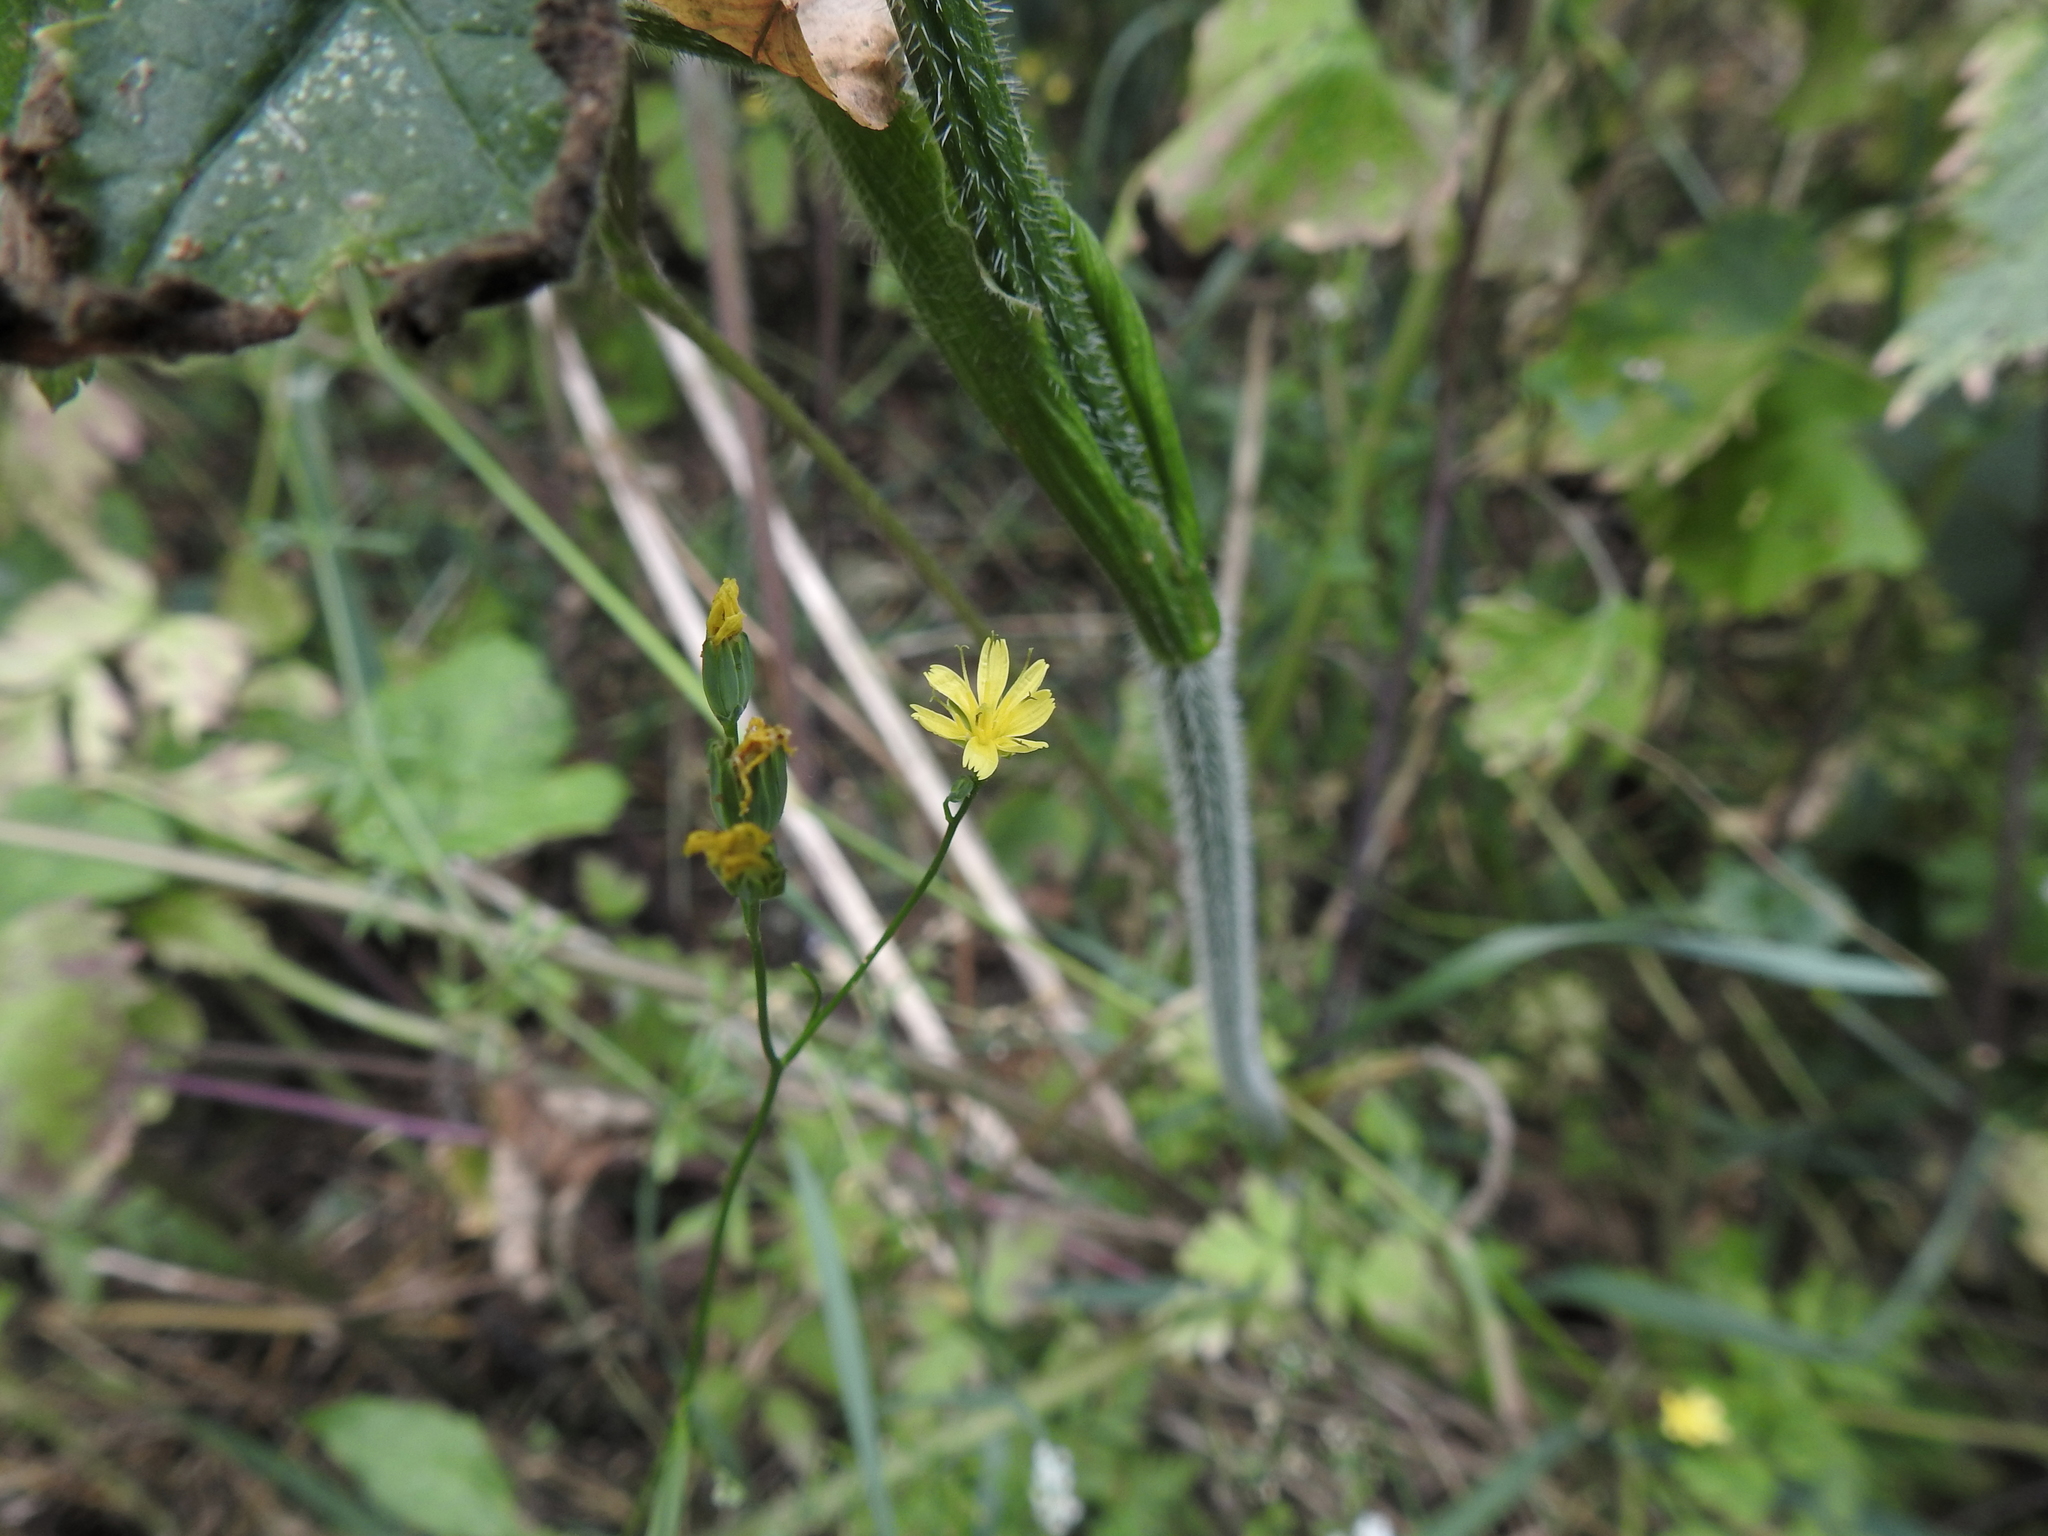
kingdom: Plantae
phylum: Tracheophyta
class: Magnoliopsida
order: Asterales
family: Asteraceae
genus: Lapsana
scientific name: Lapsana communis
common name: Nipplewort
